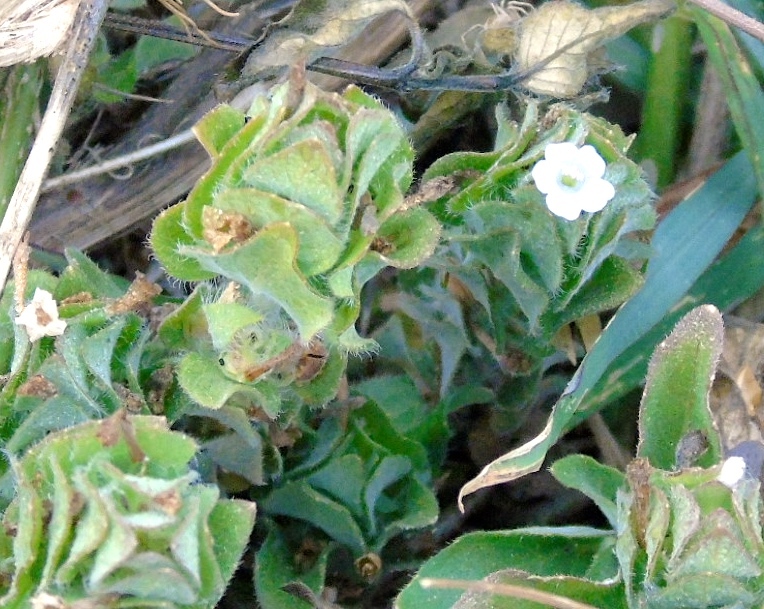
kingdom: Plantae
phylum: Tracheophyta
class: Magnoliopsida
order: Lamiales
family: Acanthaceae
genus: Ruellia
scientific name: Ruellia blechum
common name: Browne's blechum
